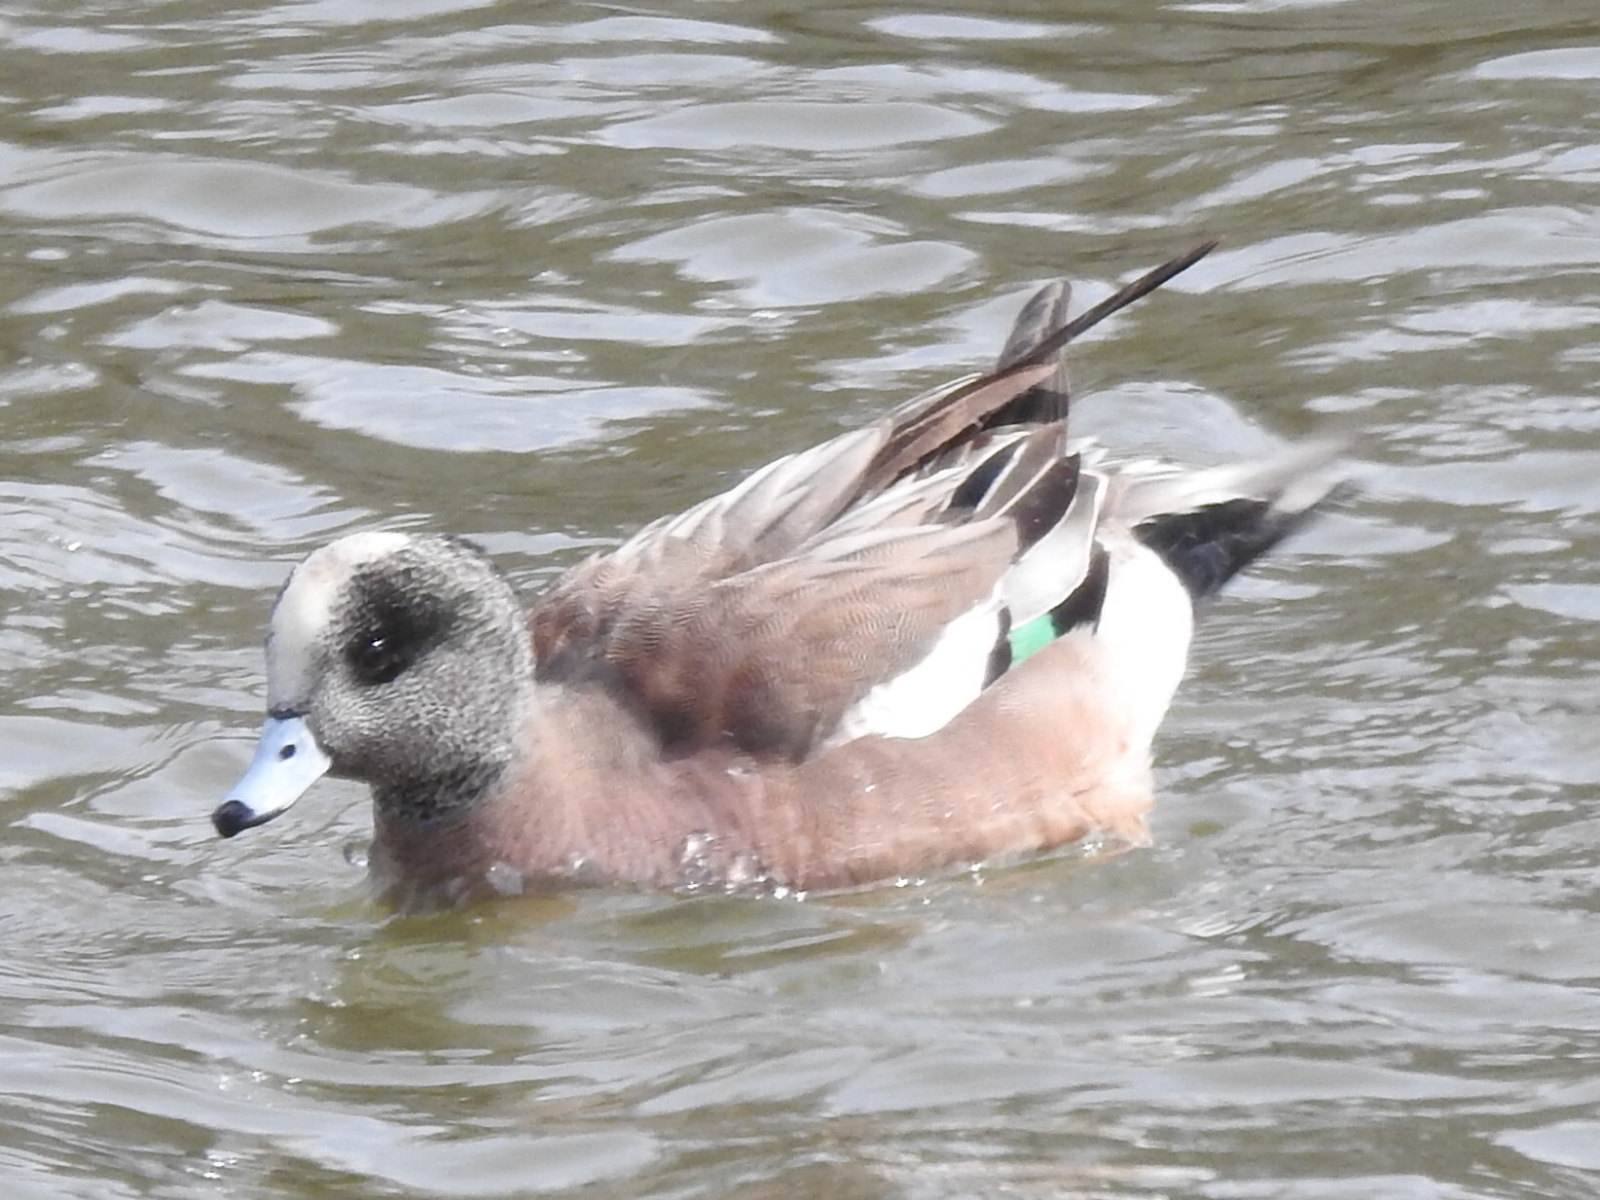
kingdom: Animalia
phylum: Chordata
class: Aves
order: Anseriformes
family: Anatidae
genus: Mareca
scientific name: Mareca americana
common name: American wigeon
